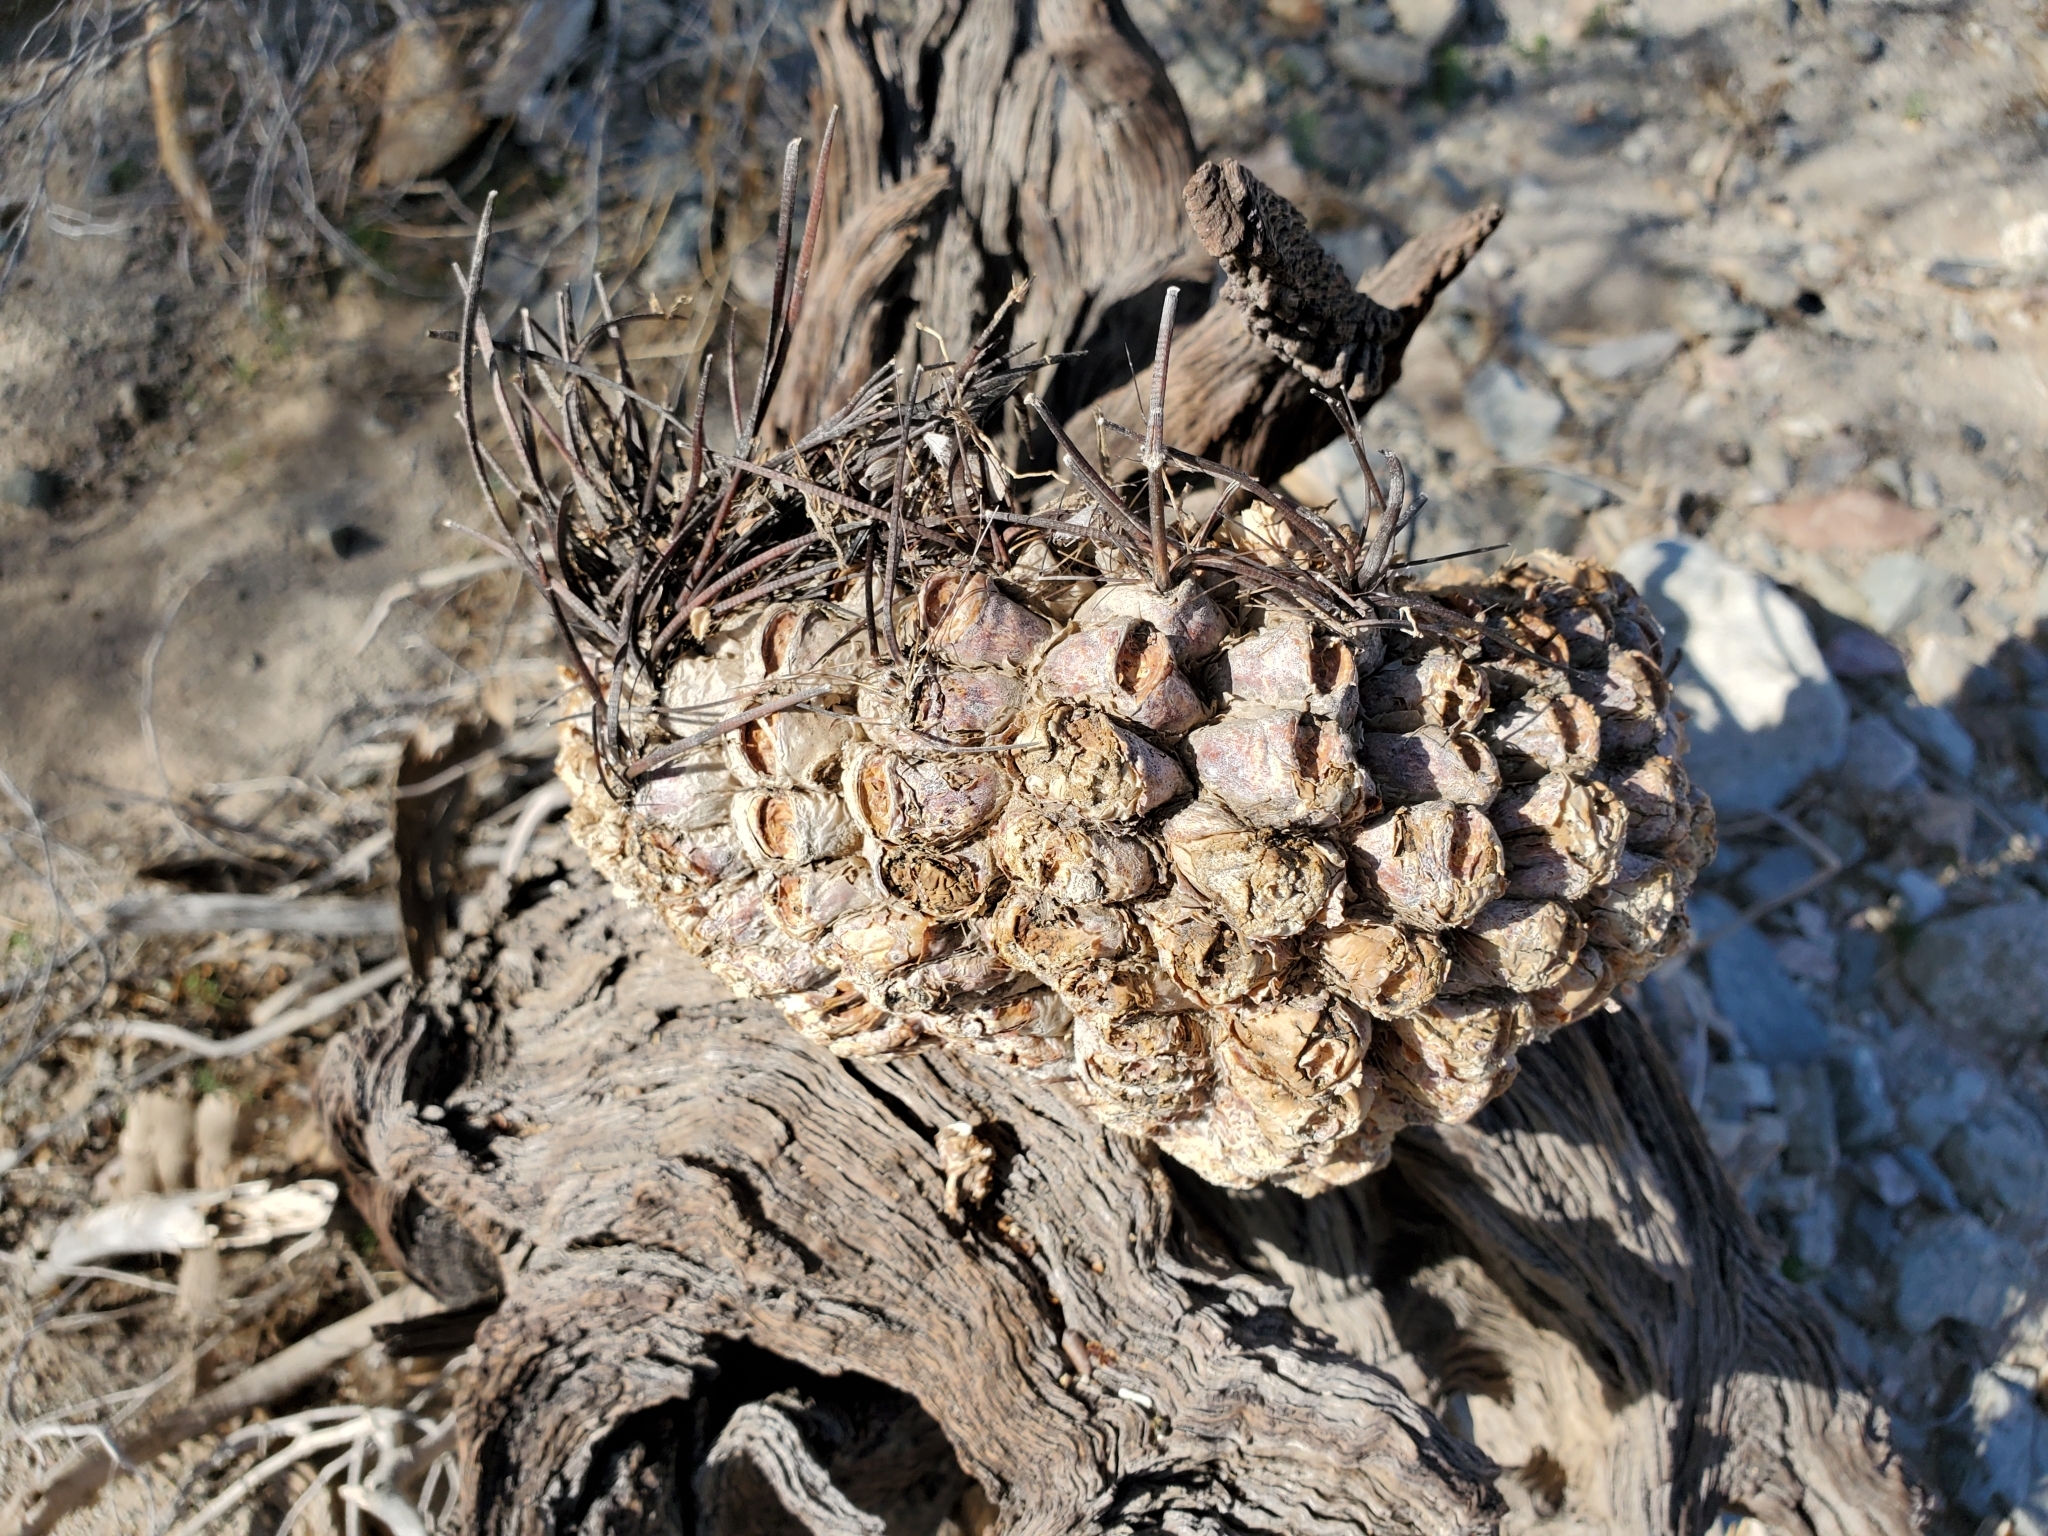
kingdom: Plantae
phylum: Tracheophyta
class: Magnoliopsida
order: Caryophyllales
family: Cactaceae
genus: Ferocactus
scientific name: Ferocactus cylindraceus
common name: California barrel cactus
